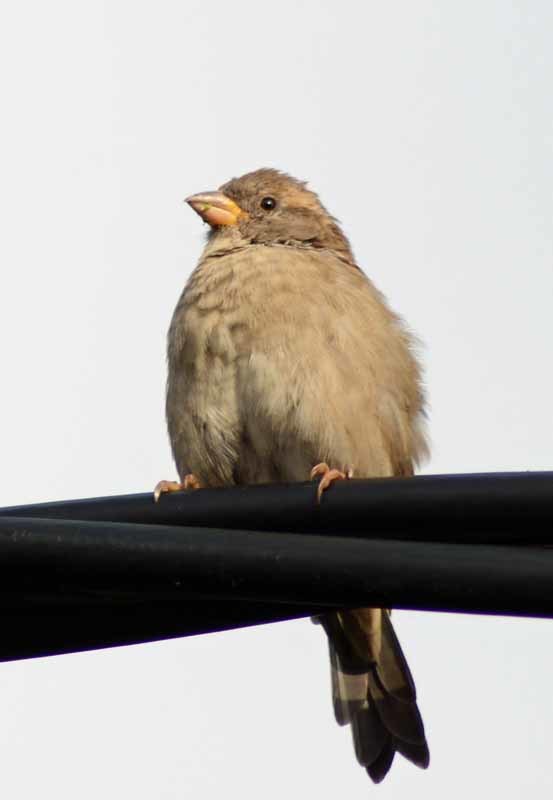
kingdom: Animalia
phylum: Chordata
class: Aves
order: Passeriformes
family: Passeridae
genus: Passer
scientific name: Passer domesticus
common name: House sparrow
